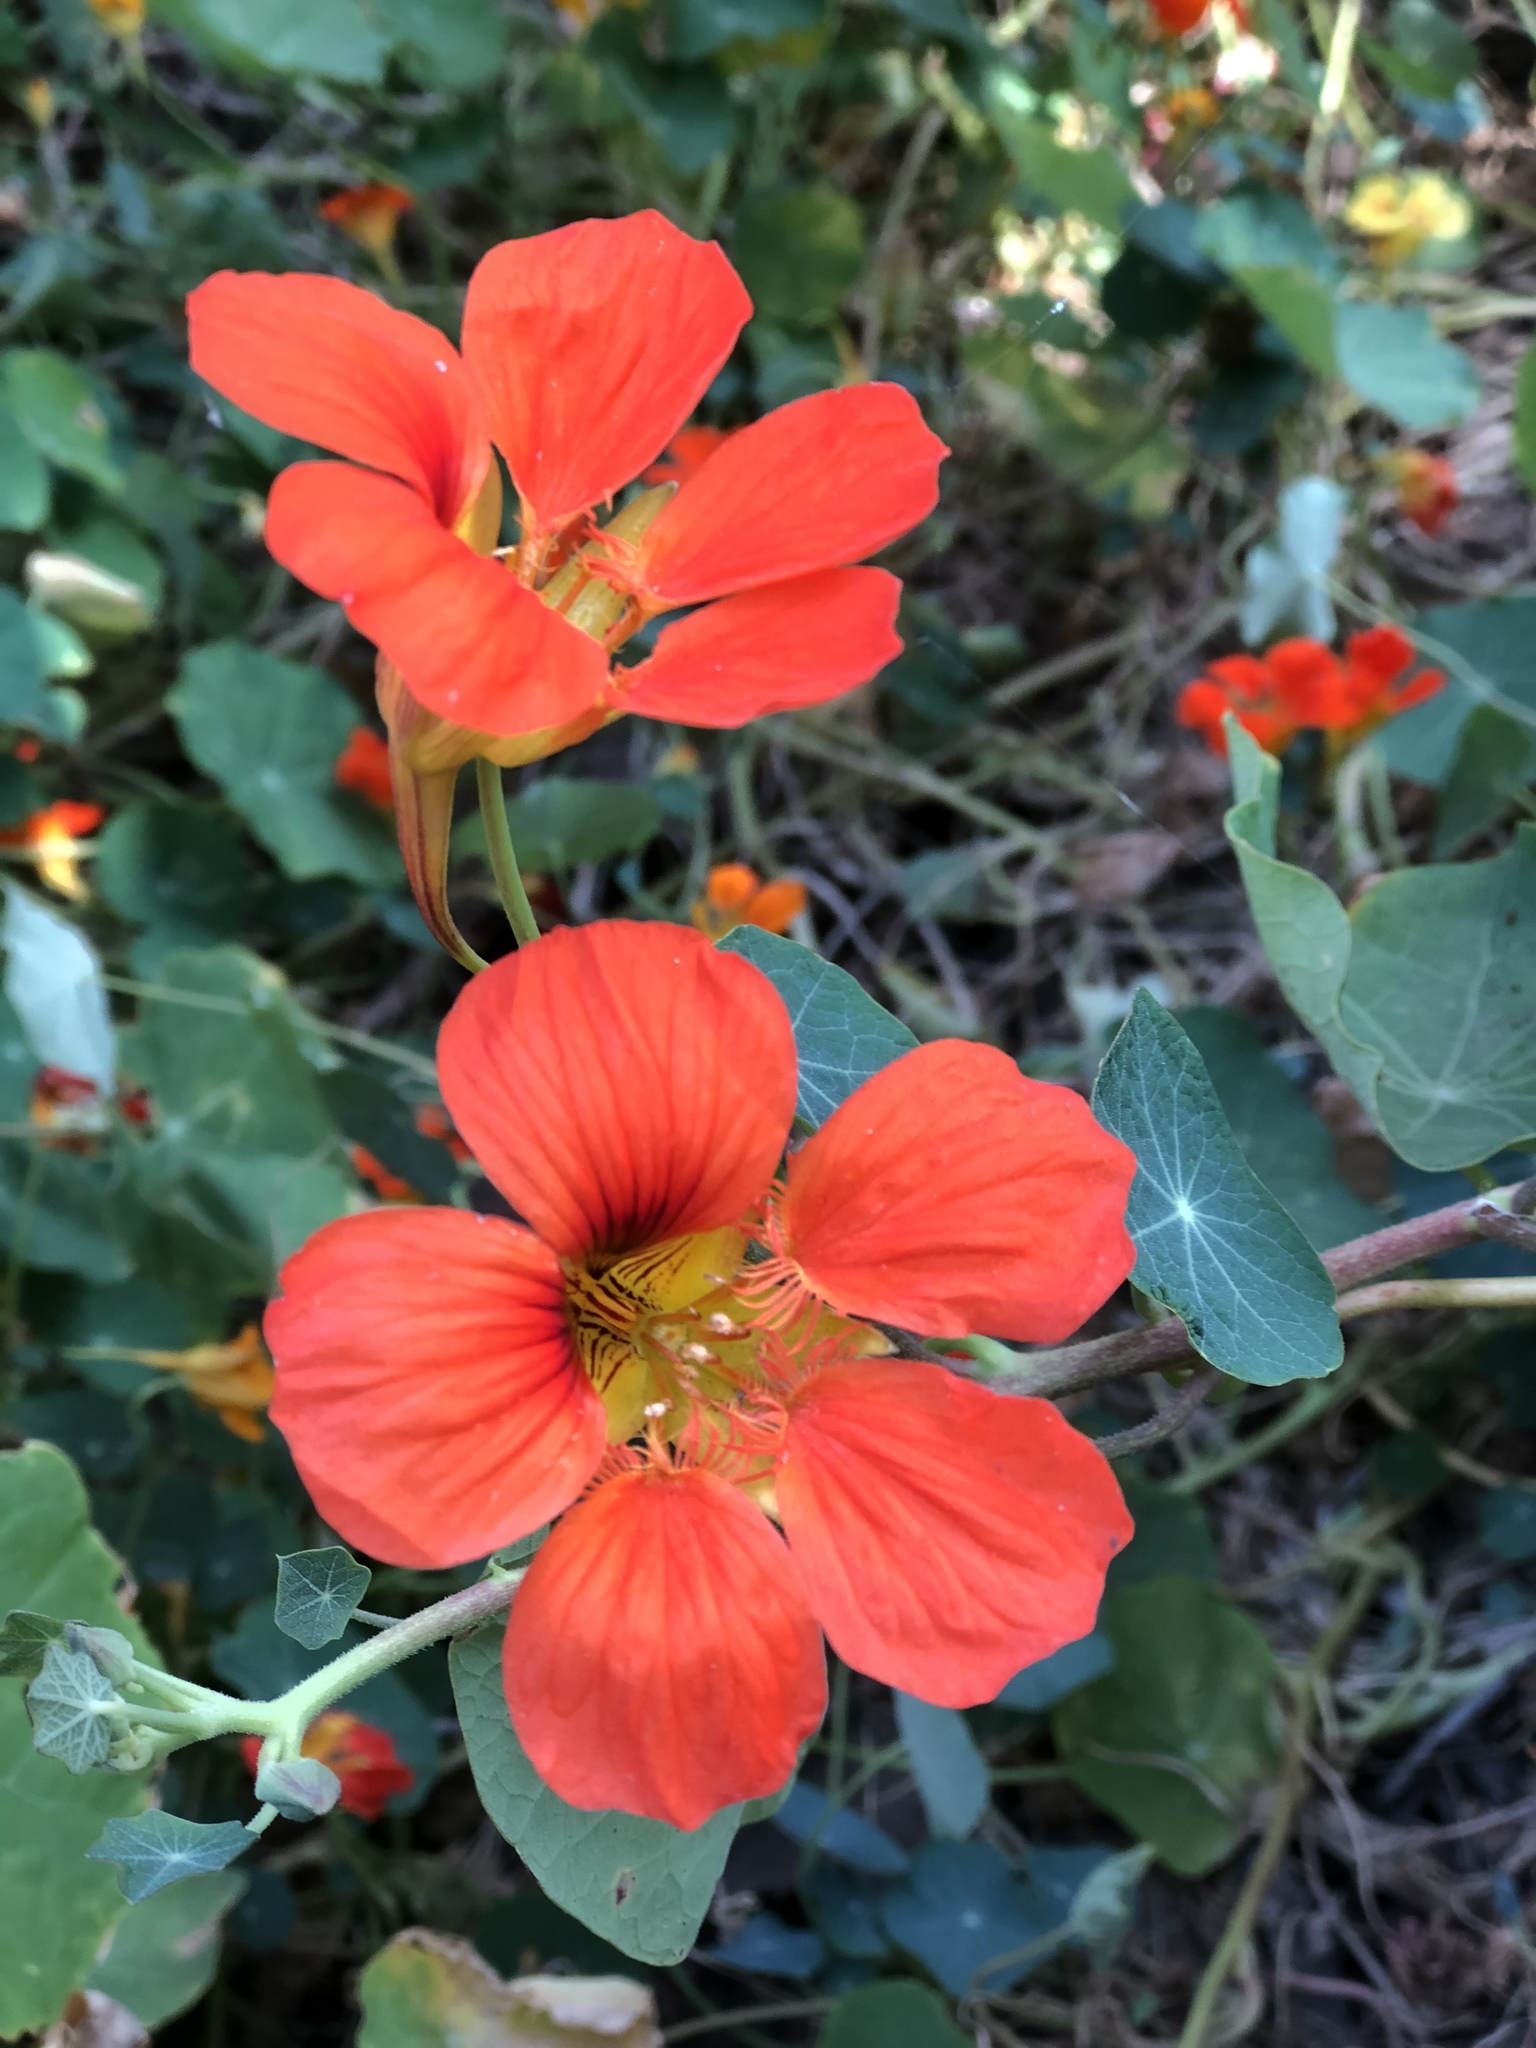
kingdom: Plantae
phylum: Tracheophyta
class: Magnoliopsida
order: Brassicales
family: Tropaeolaceae
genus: Tropaeolum
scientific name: Tropaeolum majus
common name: Nasturtium
